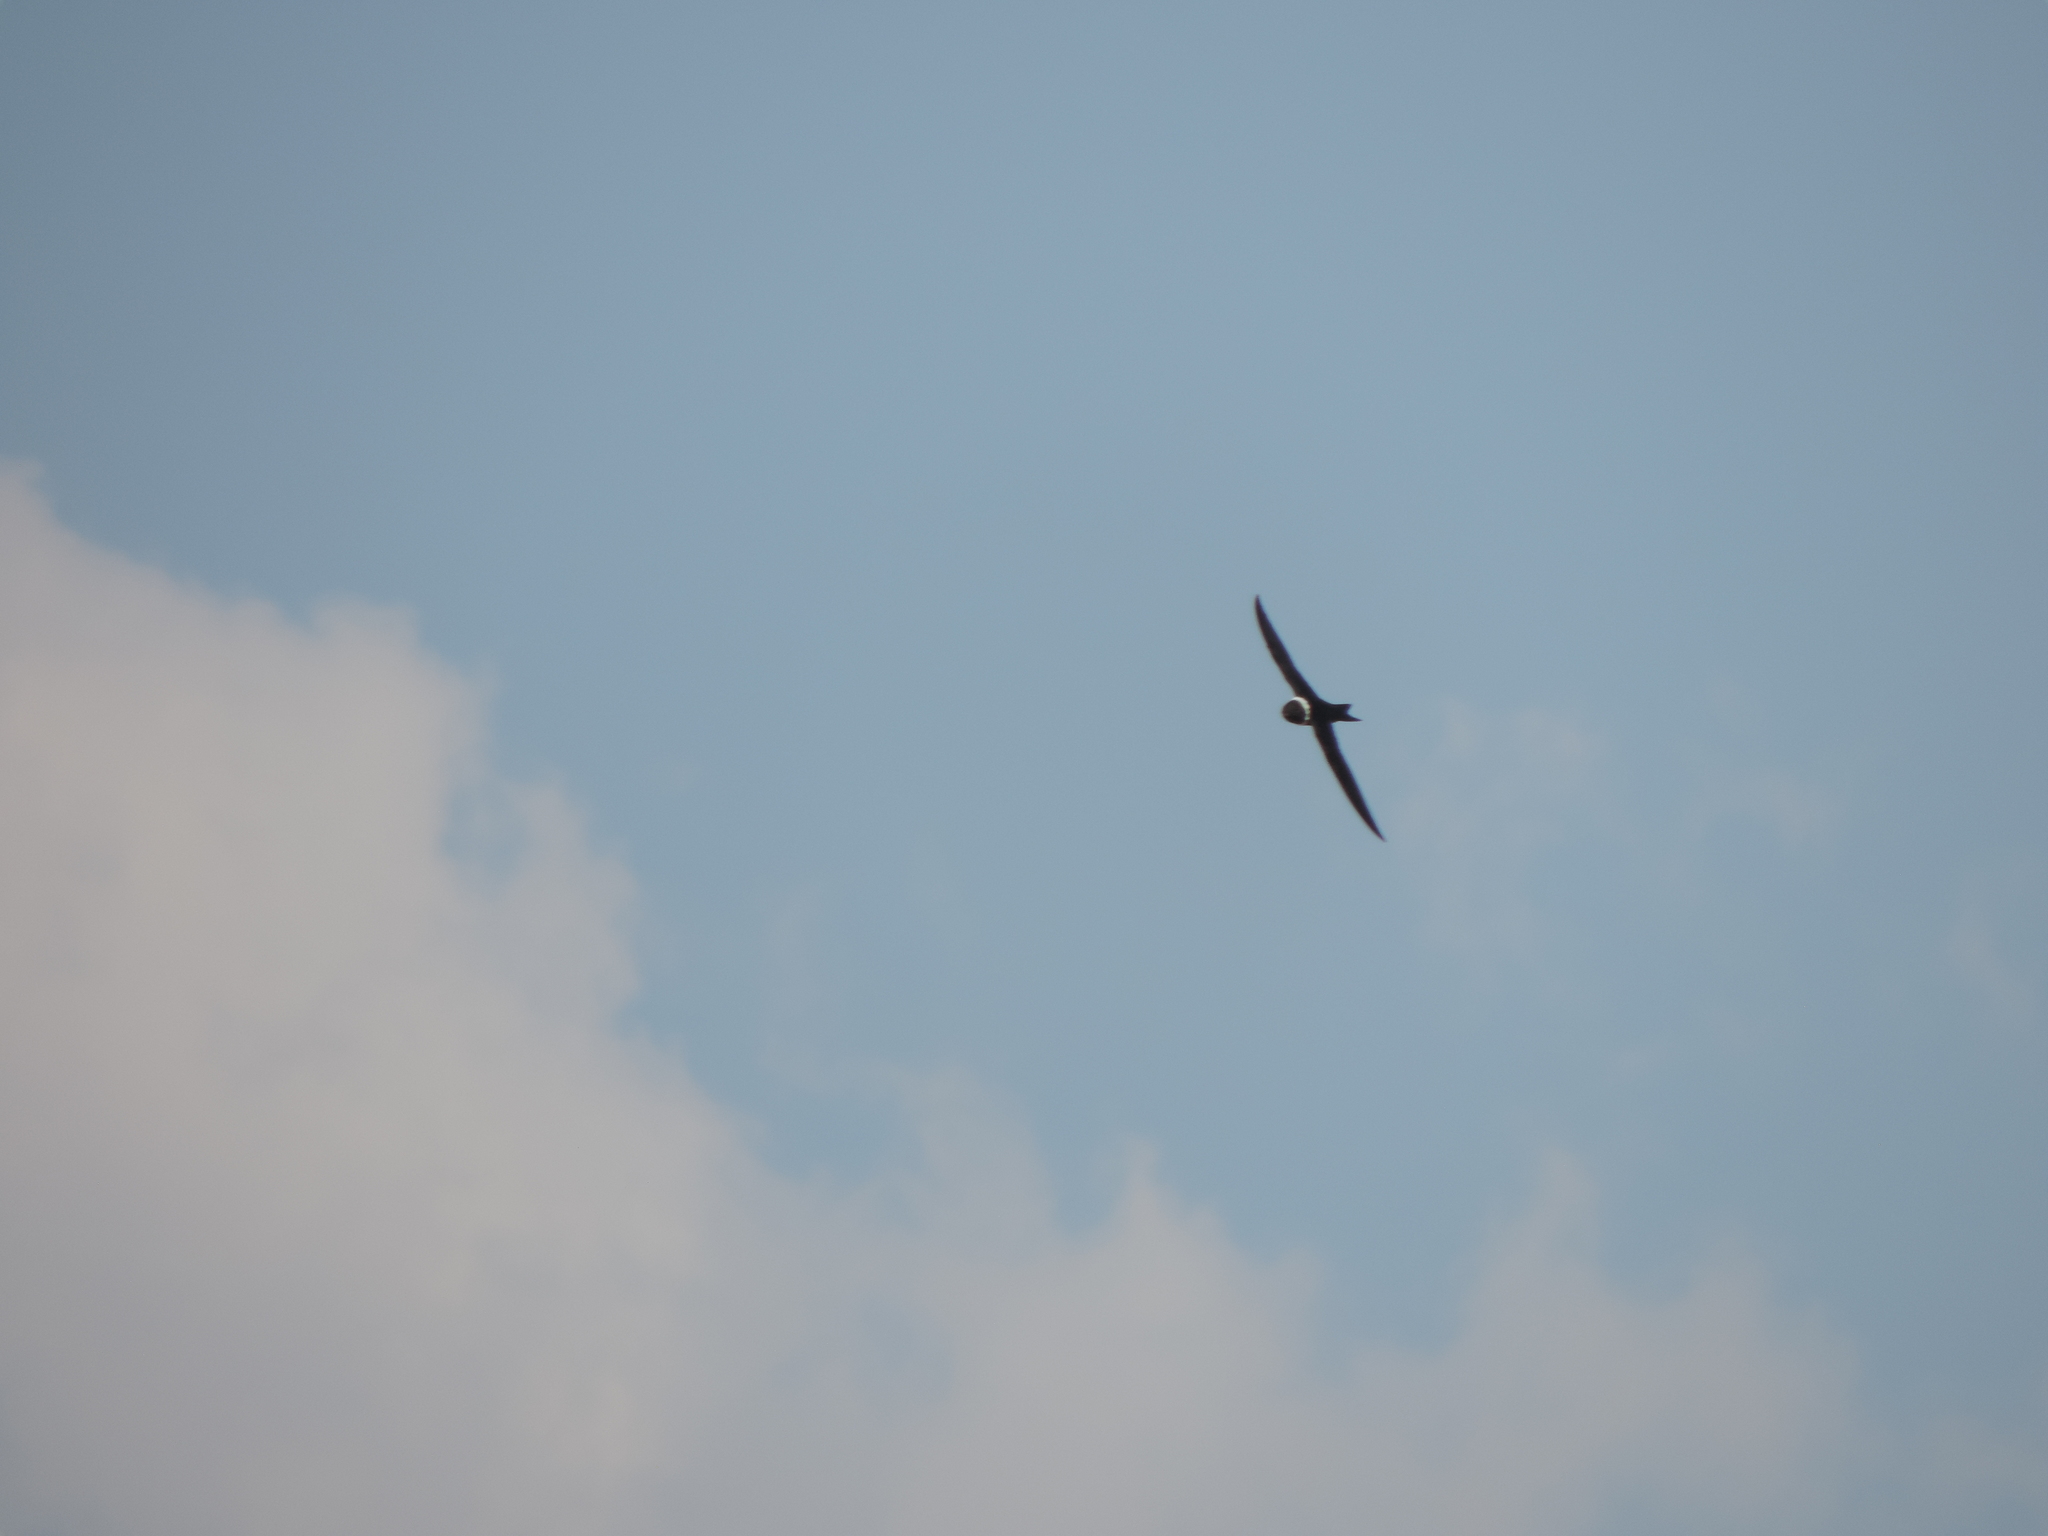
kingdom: Animalia
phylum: Chordata
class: Aves
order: Apodiformes
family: Apodidae
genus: Streptoprocne
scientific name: Streptoprocne zonaris
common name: White-collared swift
